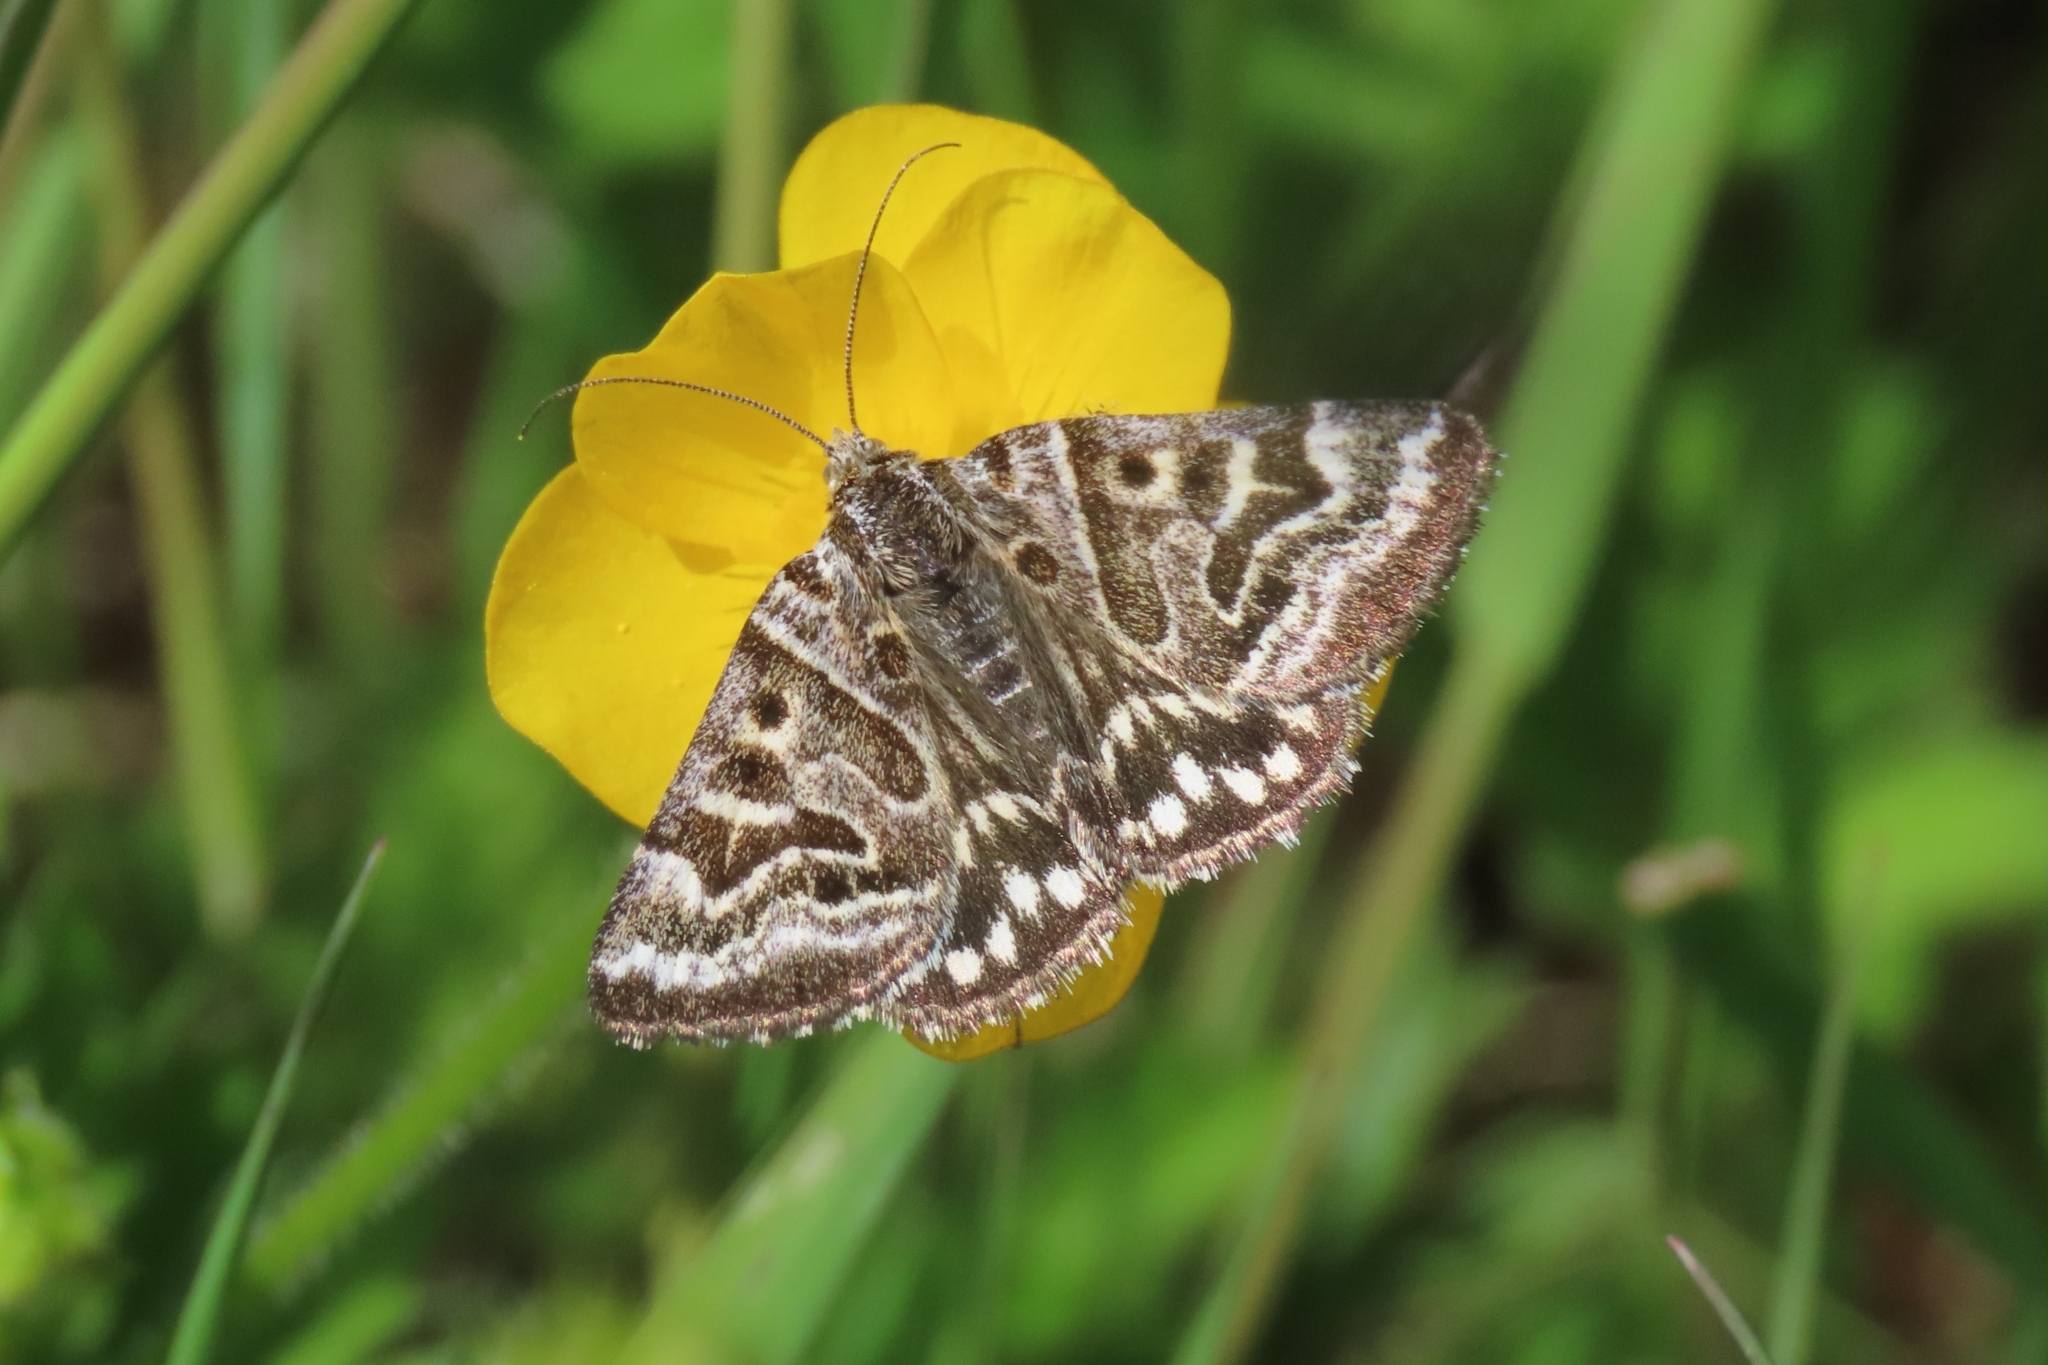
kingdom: Animalia
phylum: Arthropoda
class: Insecta
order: Lepidoptera
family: Erebidae
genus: Callistege
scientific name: Callistege mi
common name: Mother shipton
